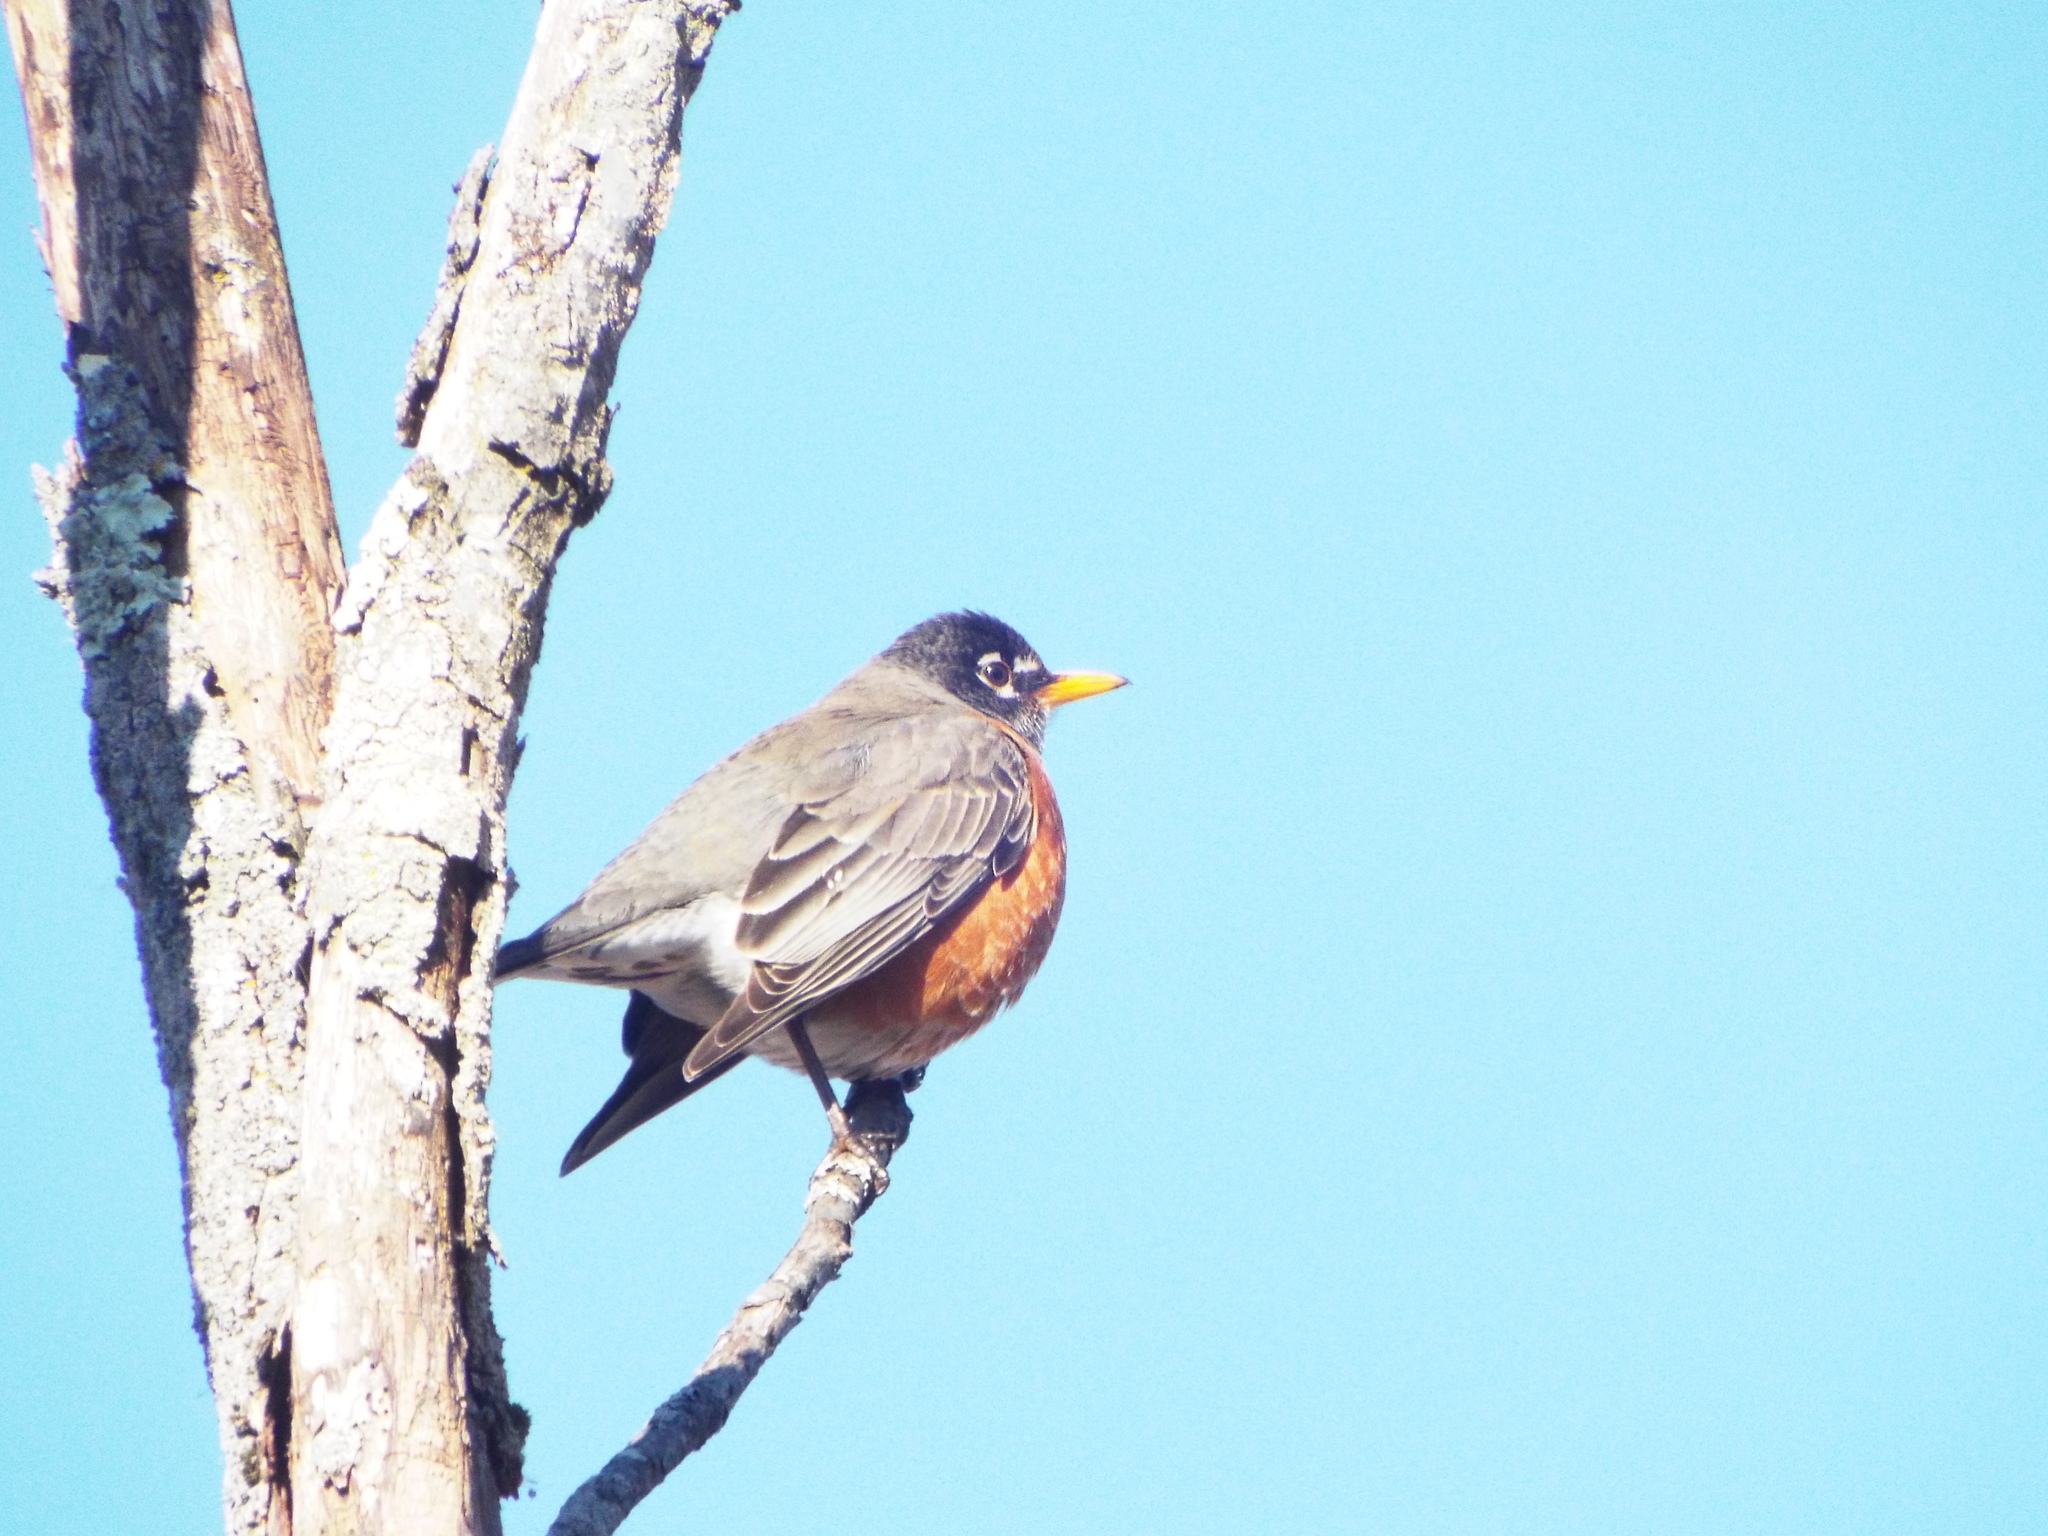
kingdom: Animalia
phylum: Chordata
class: Aves
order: Passeriformes
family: Turdidae
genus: Turdus
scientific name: Turdus migratorius
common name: American robin
